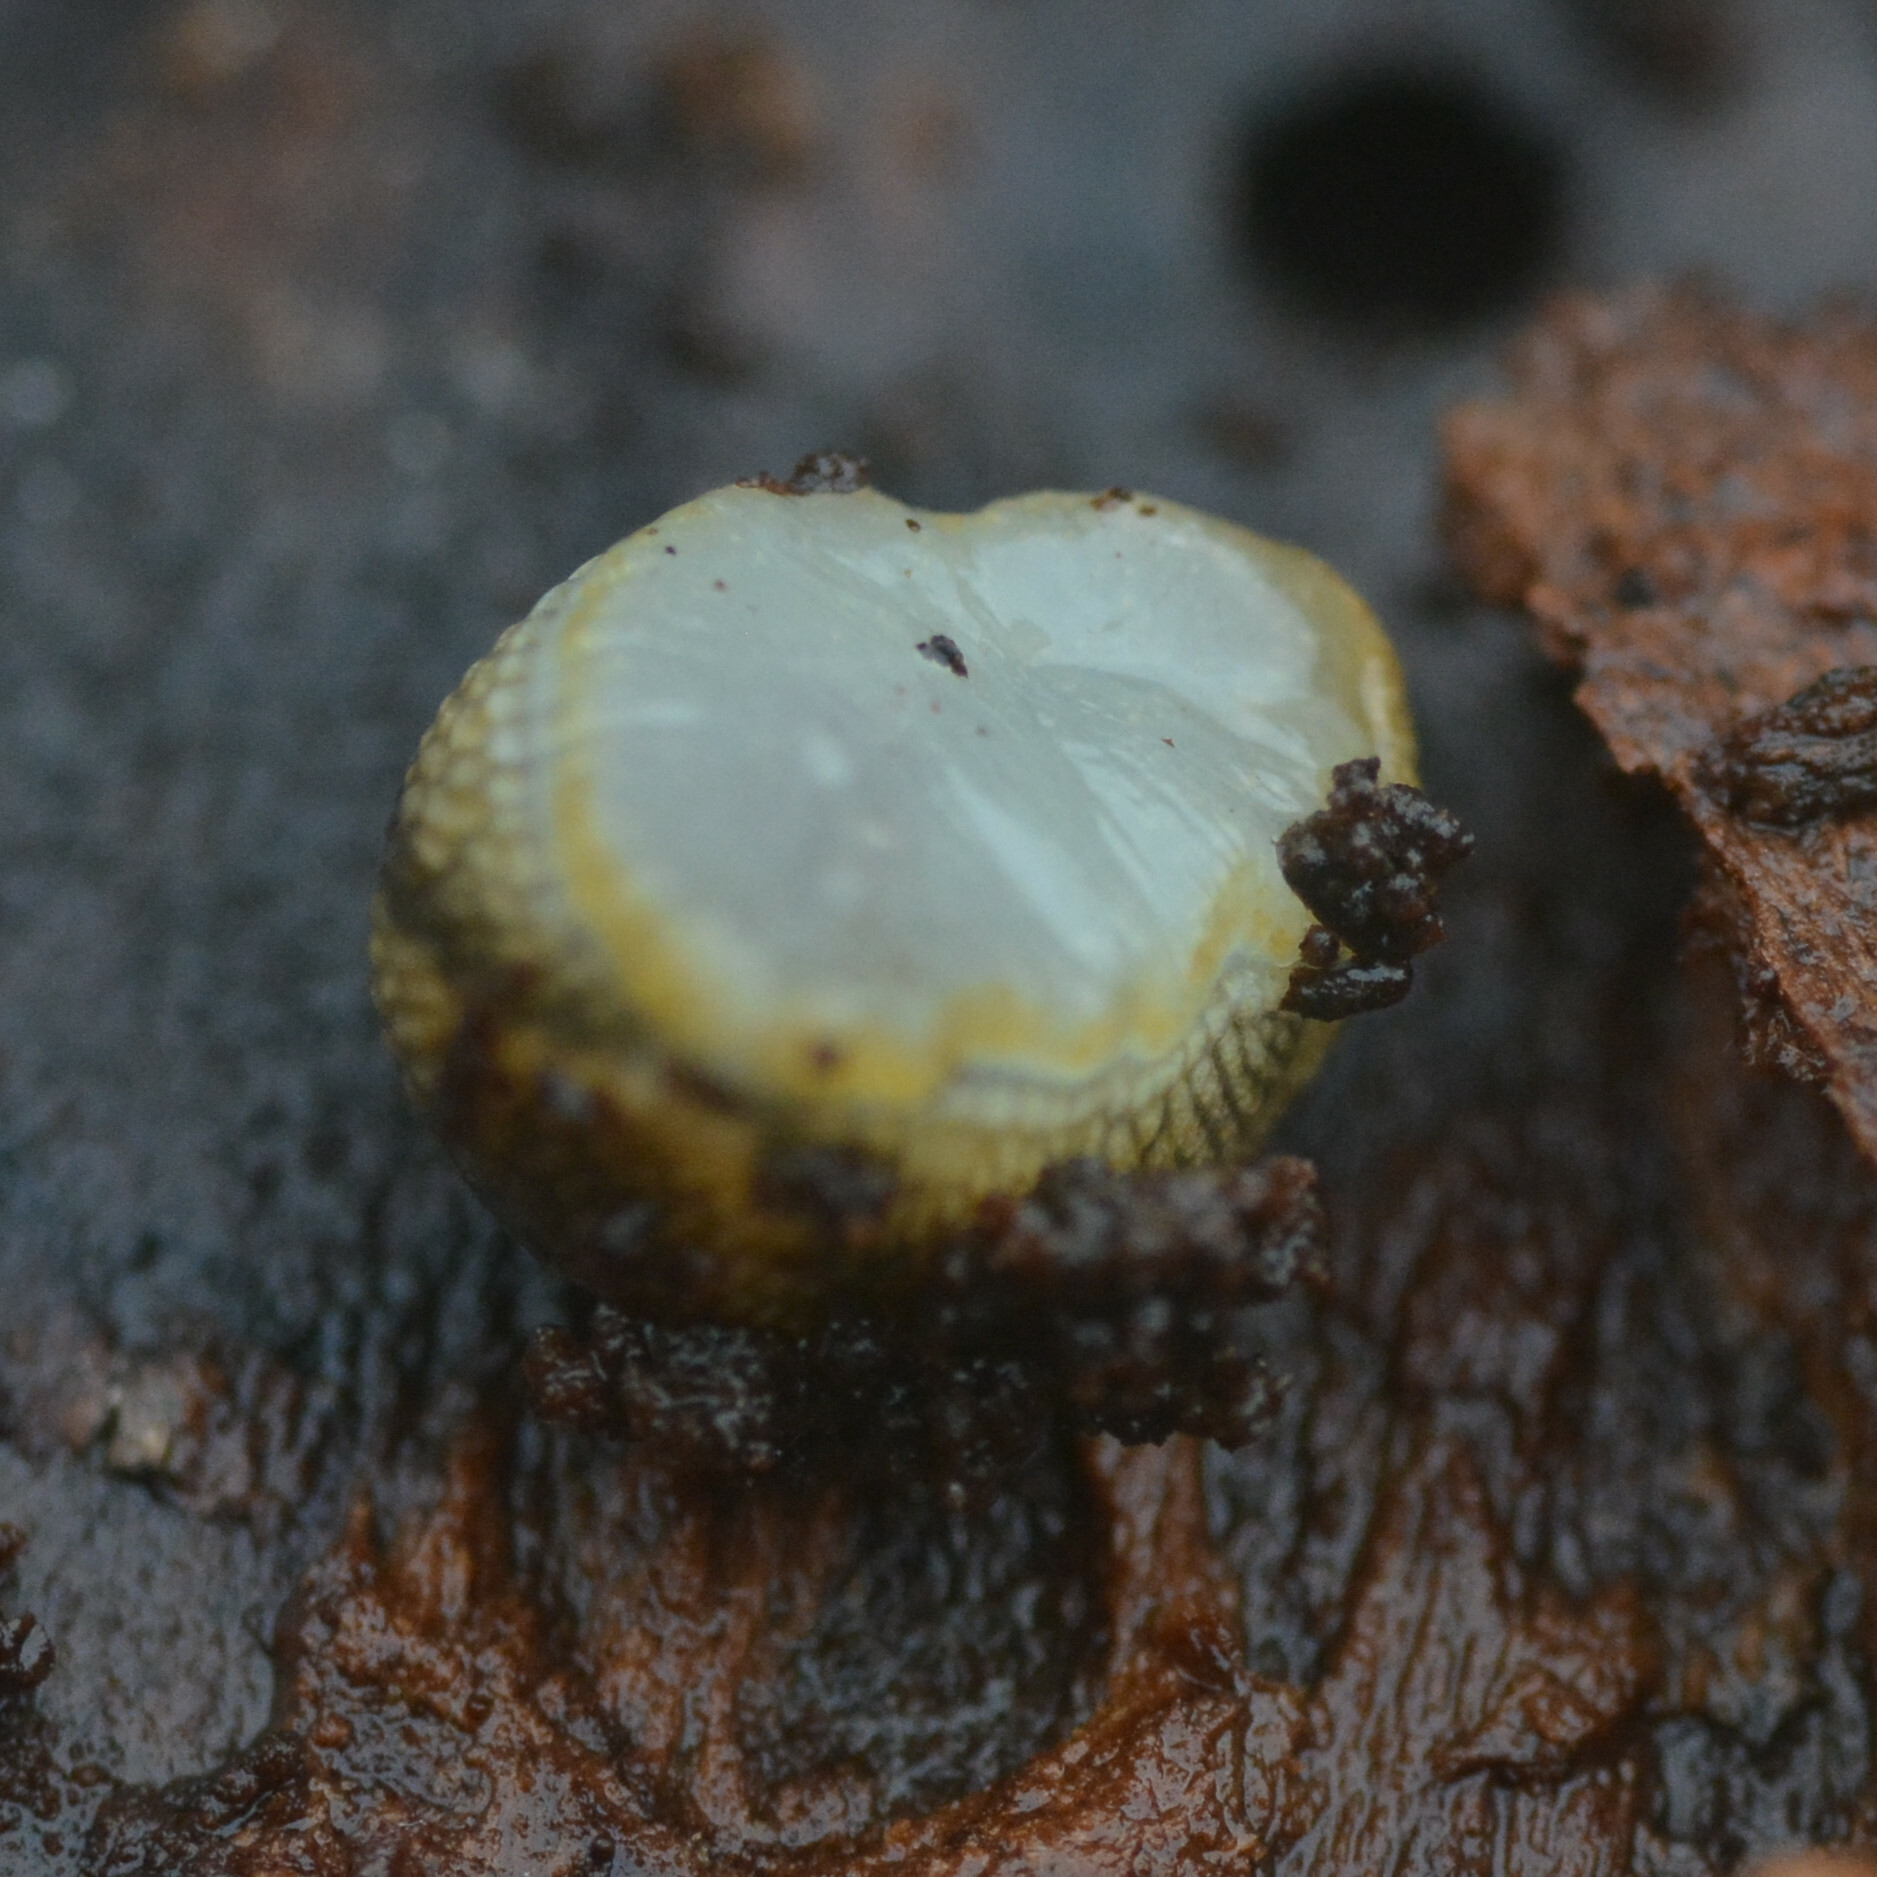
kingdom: Animalia
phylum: Mollusca
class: Gastropoda
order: Stylommatophora
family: Arionidae
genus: Arion
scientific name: Arion owenii
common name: Warty arion
